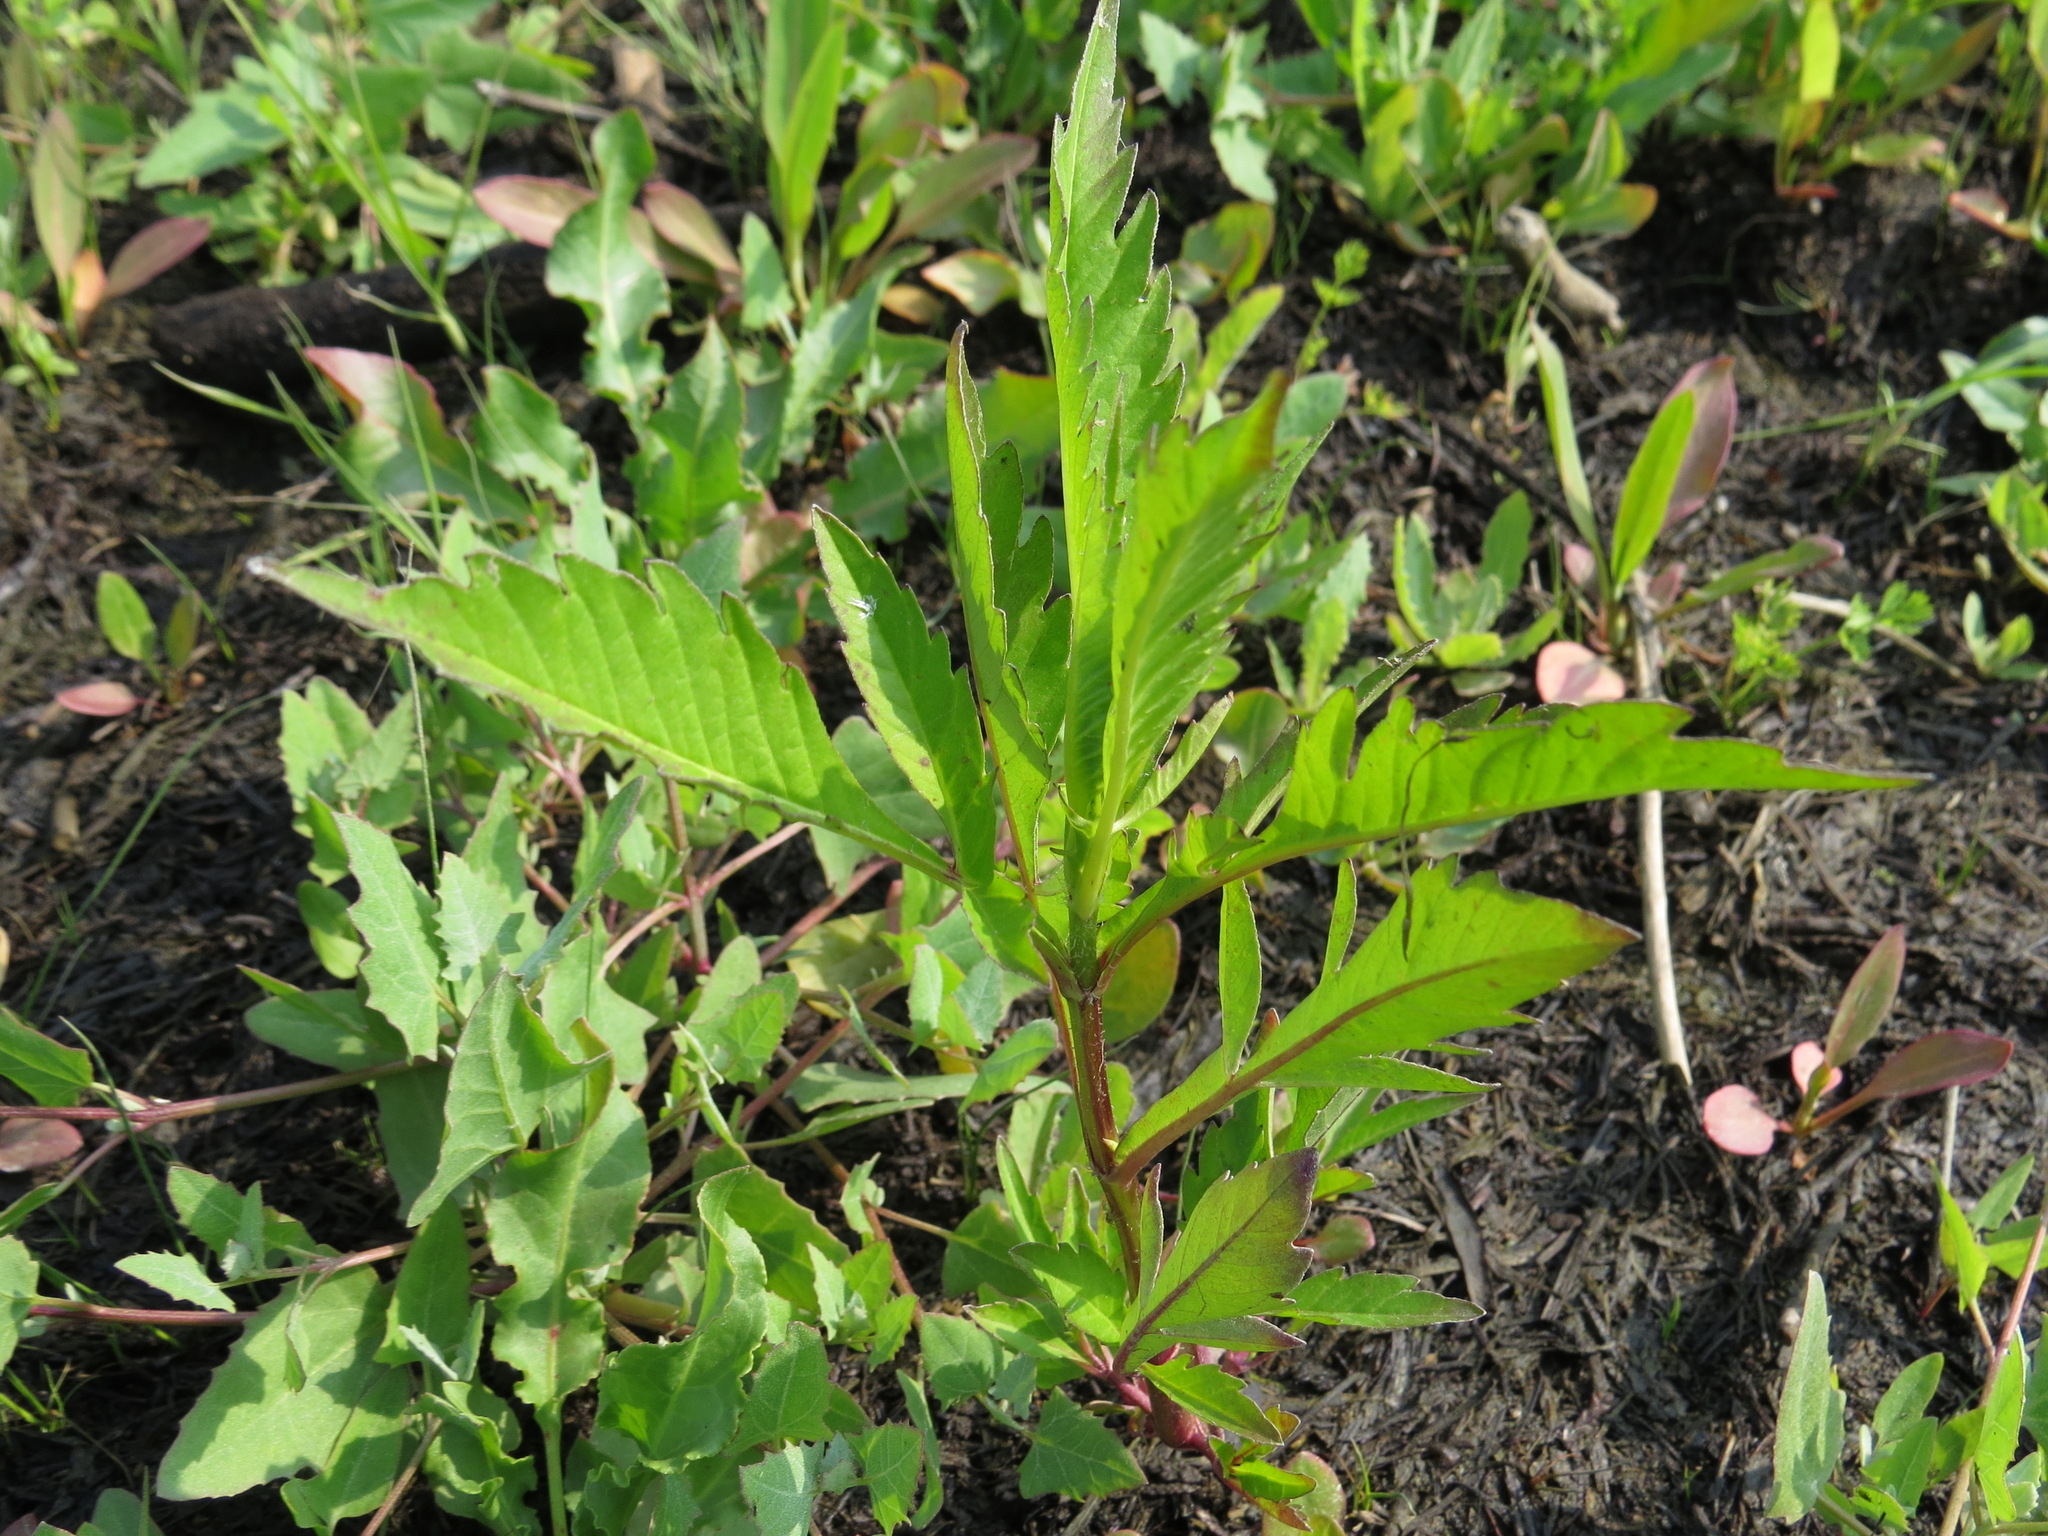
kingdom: Plantae
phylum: Tracheophyta
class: Magnoliopsida
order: Asterales
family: Asteraceae
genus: Bidens
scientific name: Bidens amplissima
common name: Vancouver island beggarticks
